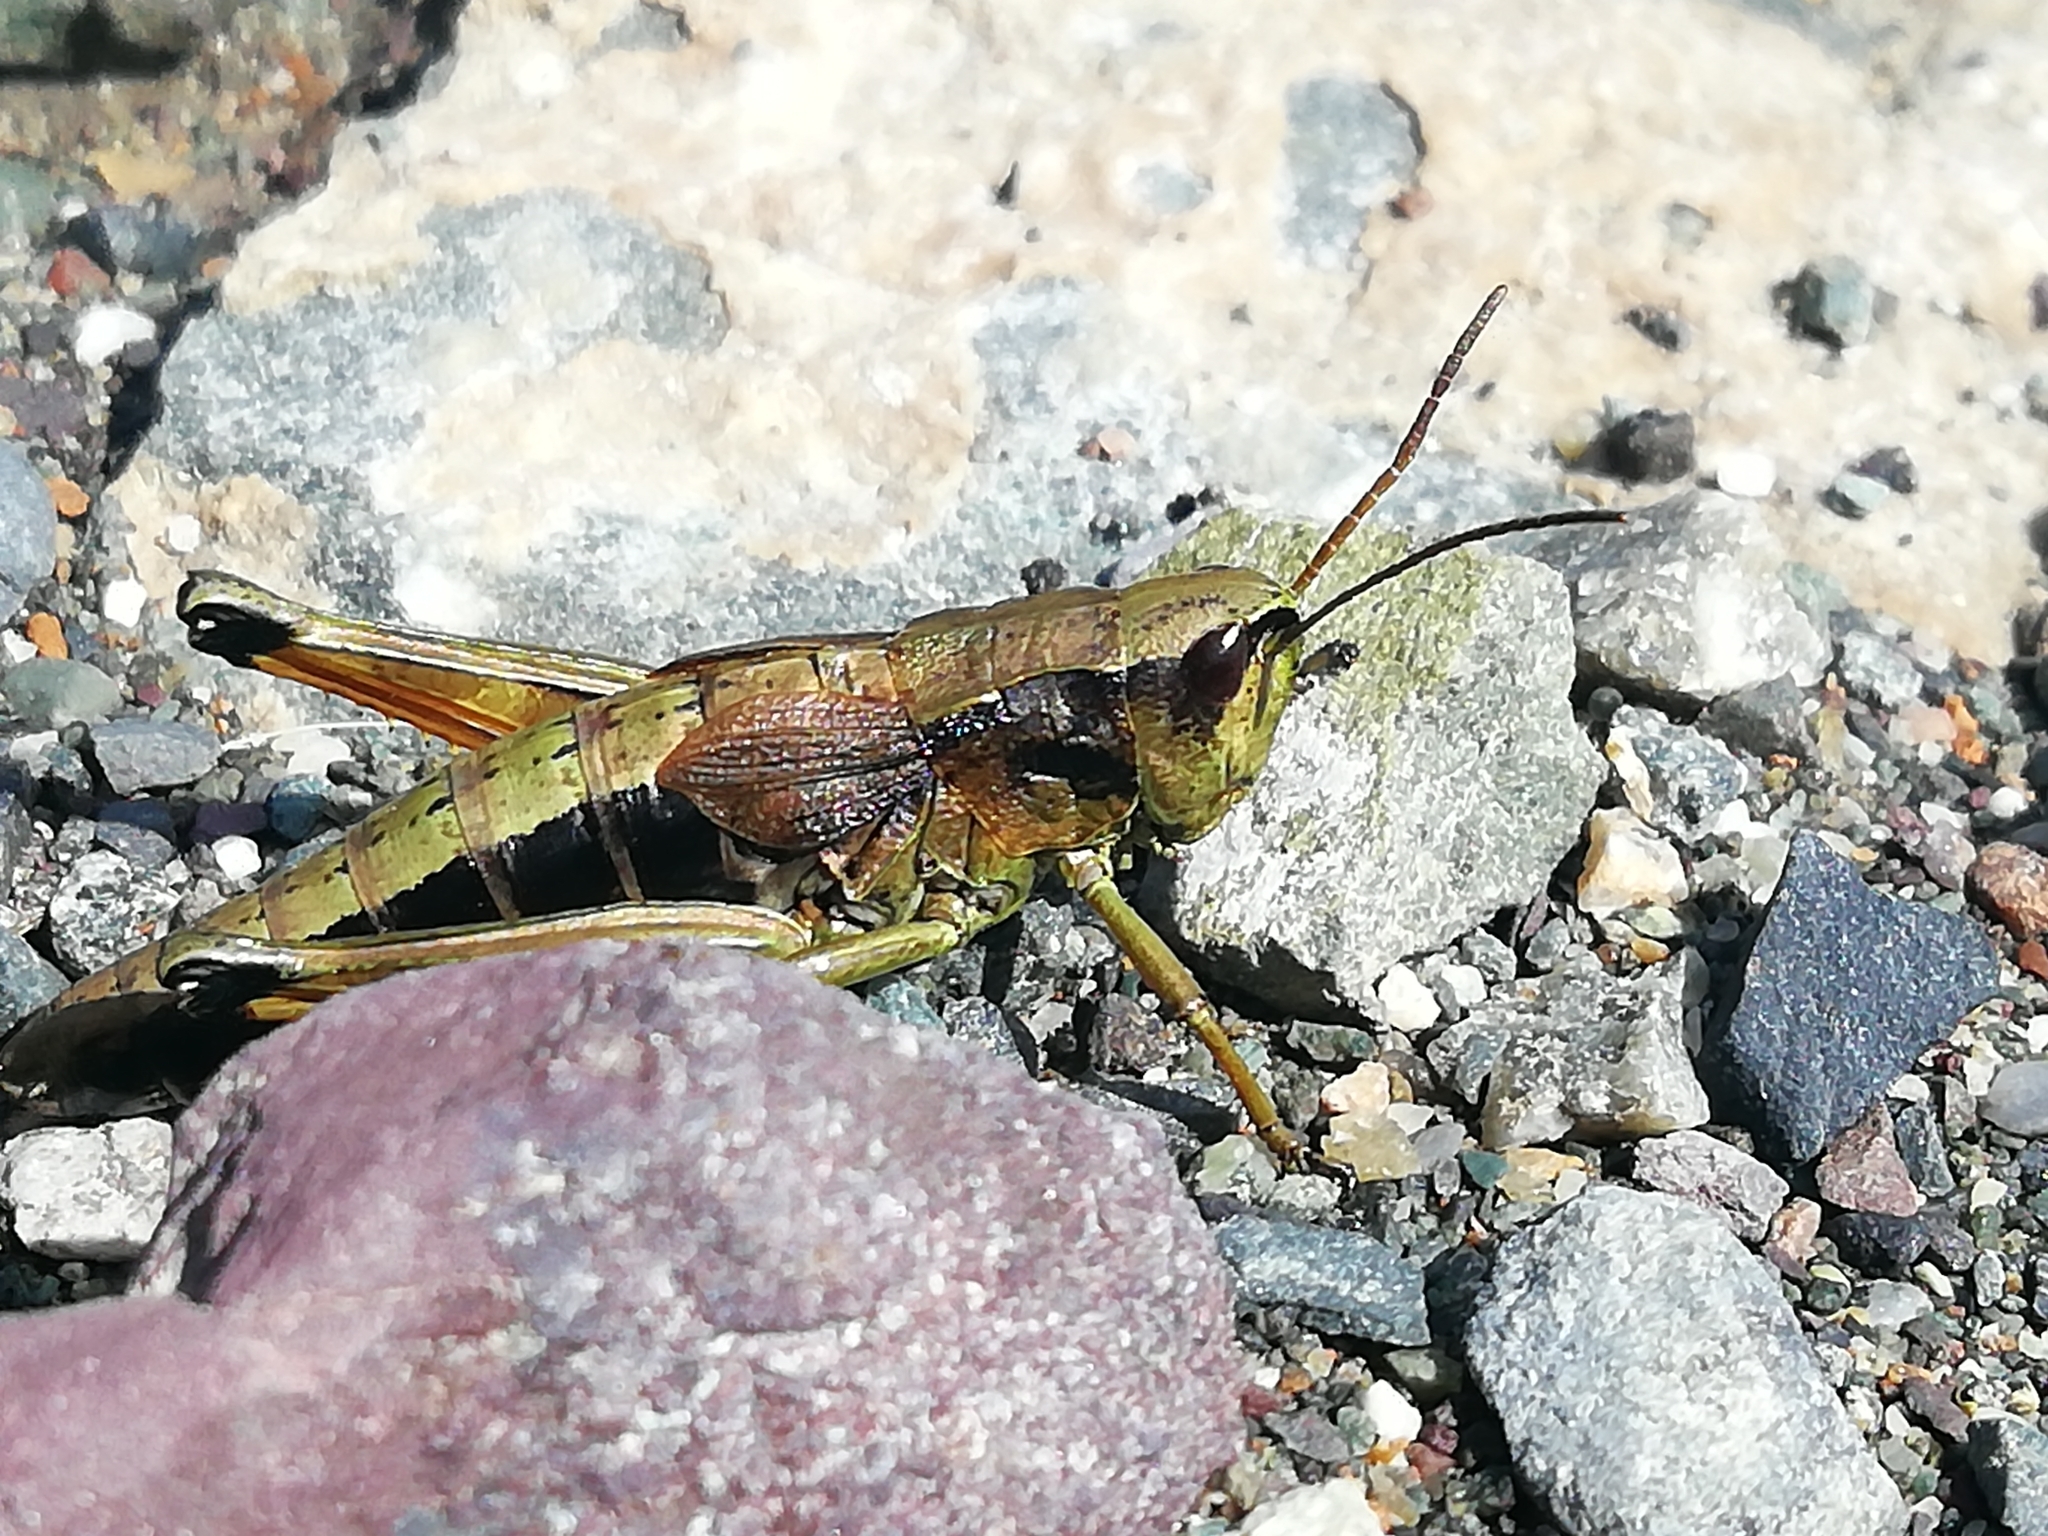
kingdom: Animalia
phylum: Arthropoda
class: Insecta
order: Orthoptera
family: Acrididae
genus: Podismopsis
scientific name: Podismopsis poppiusi
